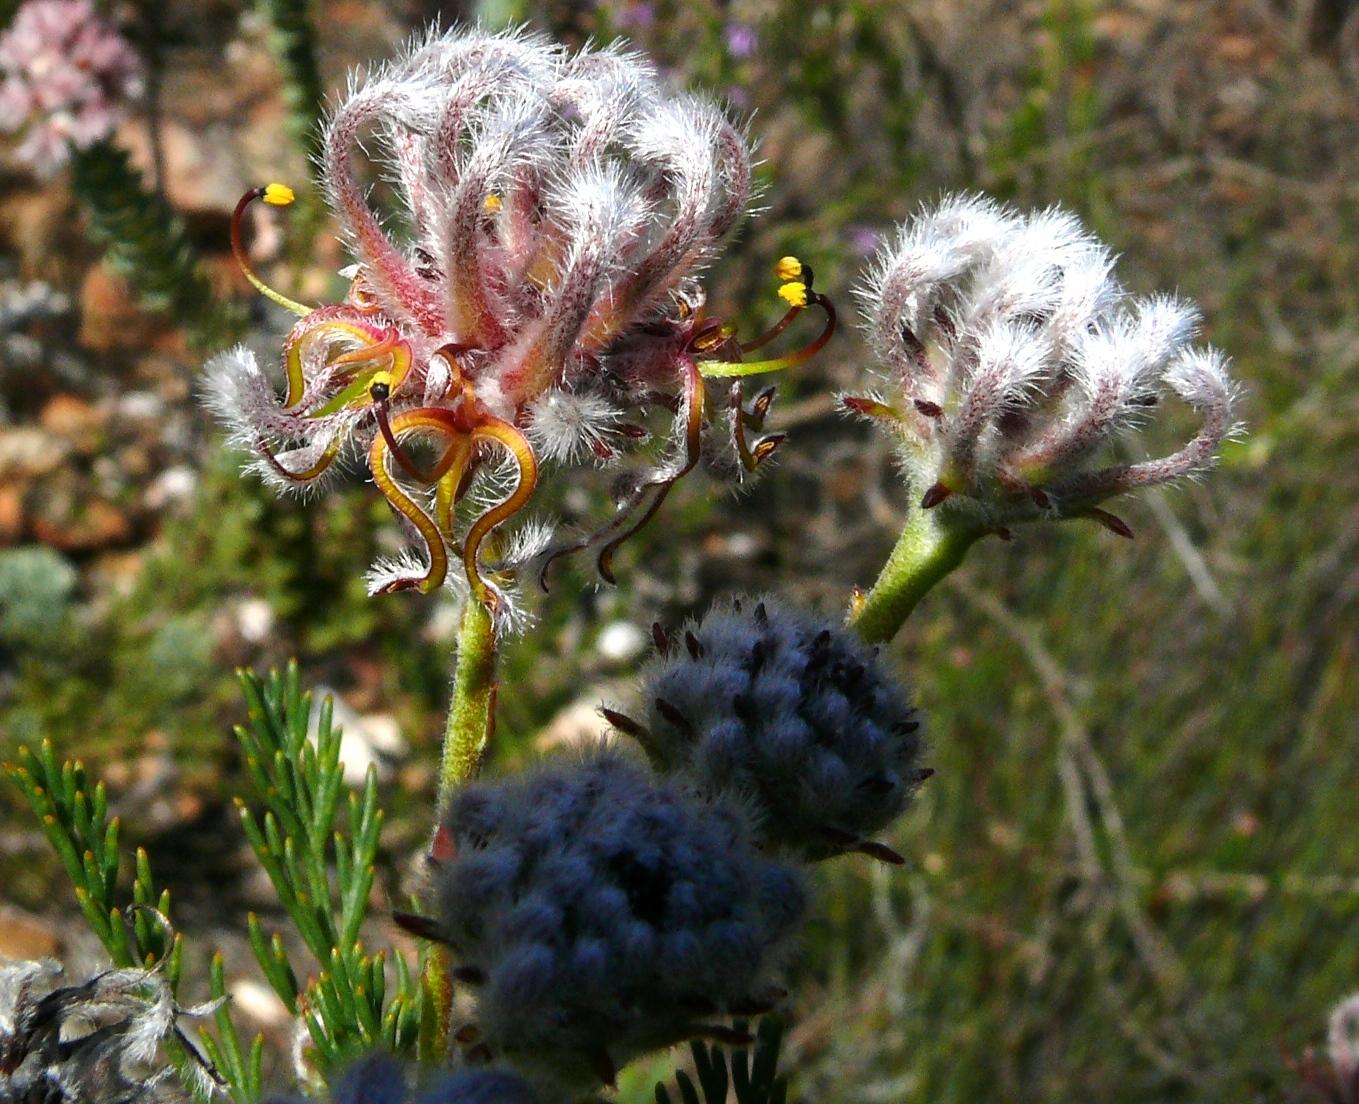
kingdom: Plantae
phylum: Tracheophyta
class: Magnoliopsida
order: Proteales
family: Proteaceae
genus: Serruria
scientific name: Serruria balanocephala
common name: Acorn spiderhead
